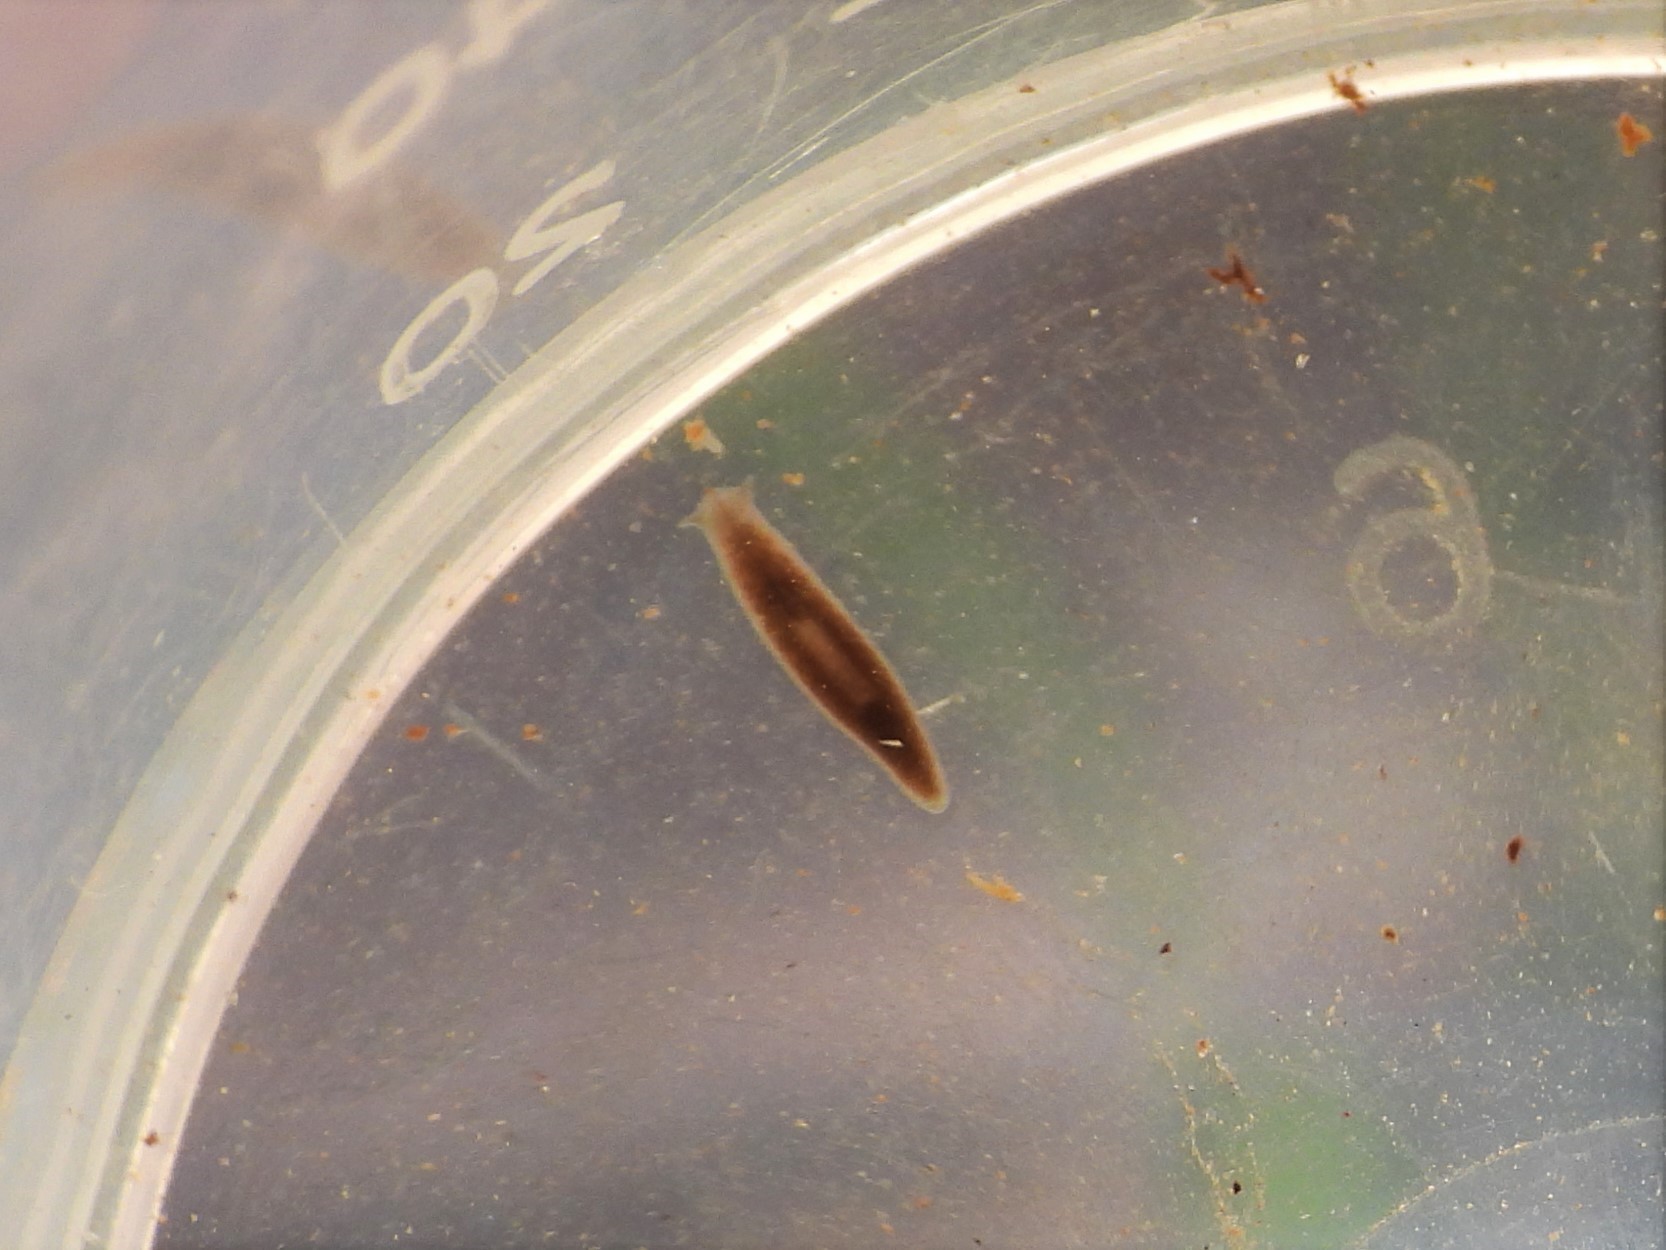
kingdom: Animalia
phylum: Platyhelminthes
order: Tricladida
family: Planariidae
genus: Polycelis
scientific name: Polycelis felina
